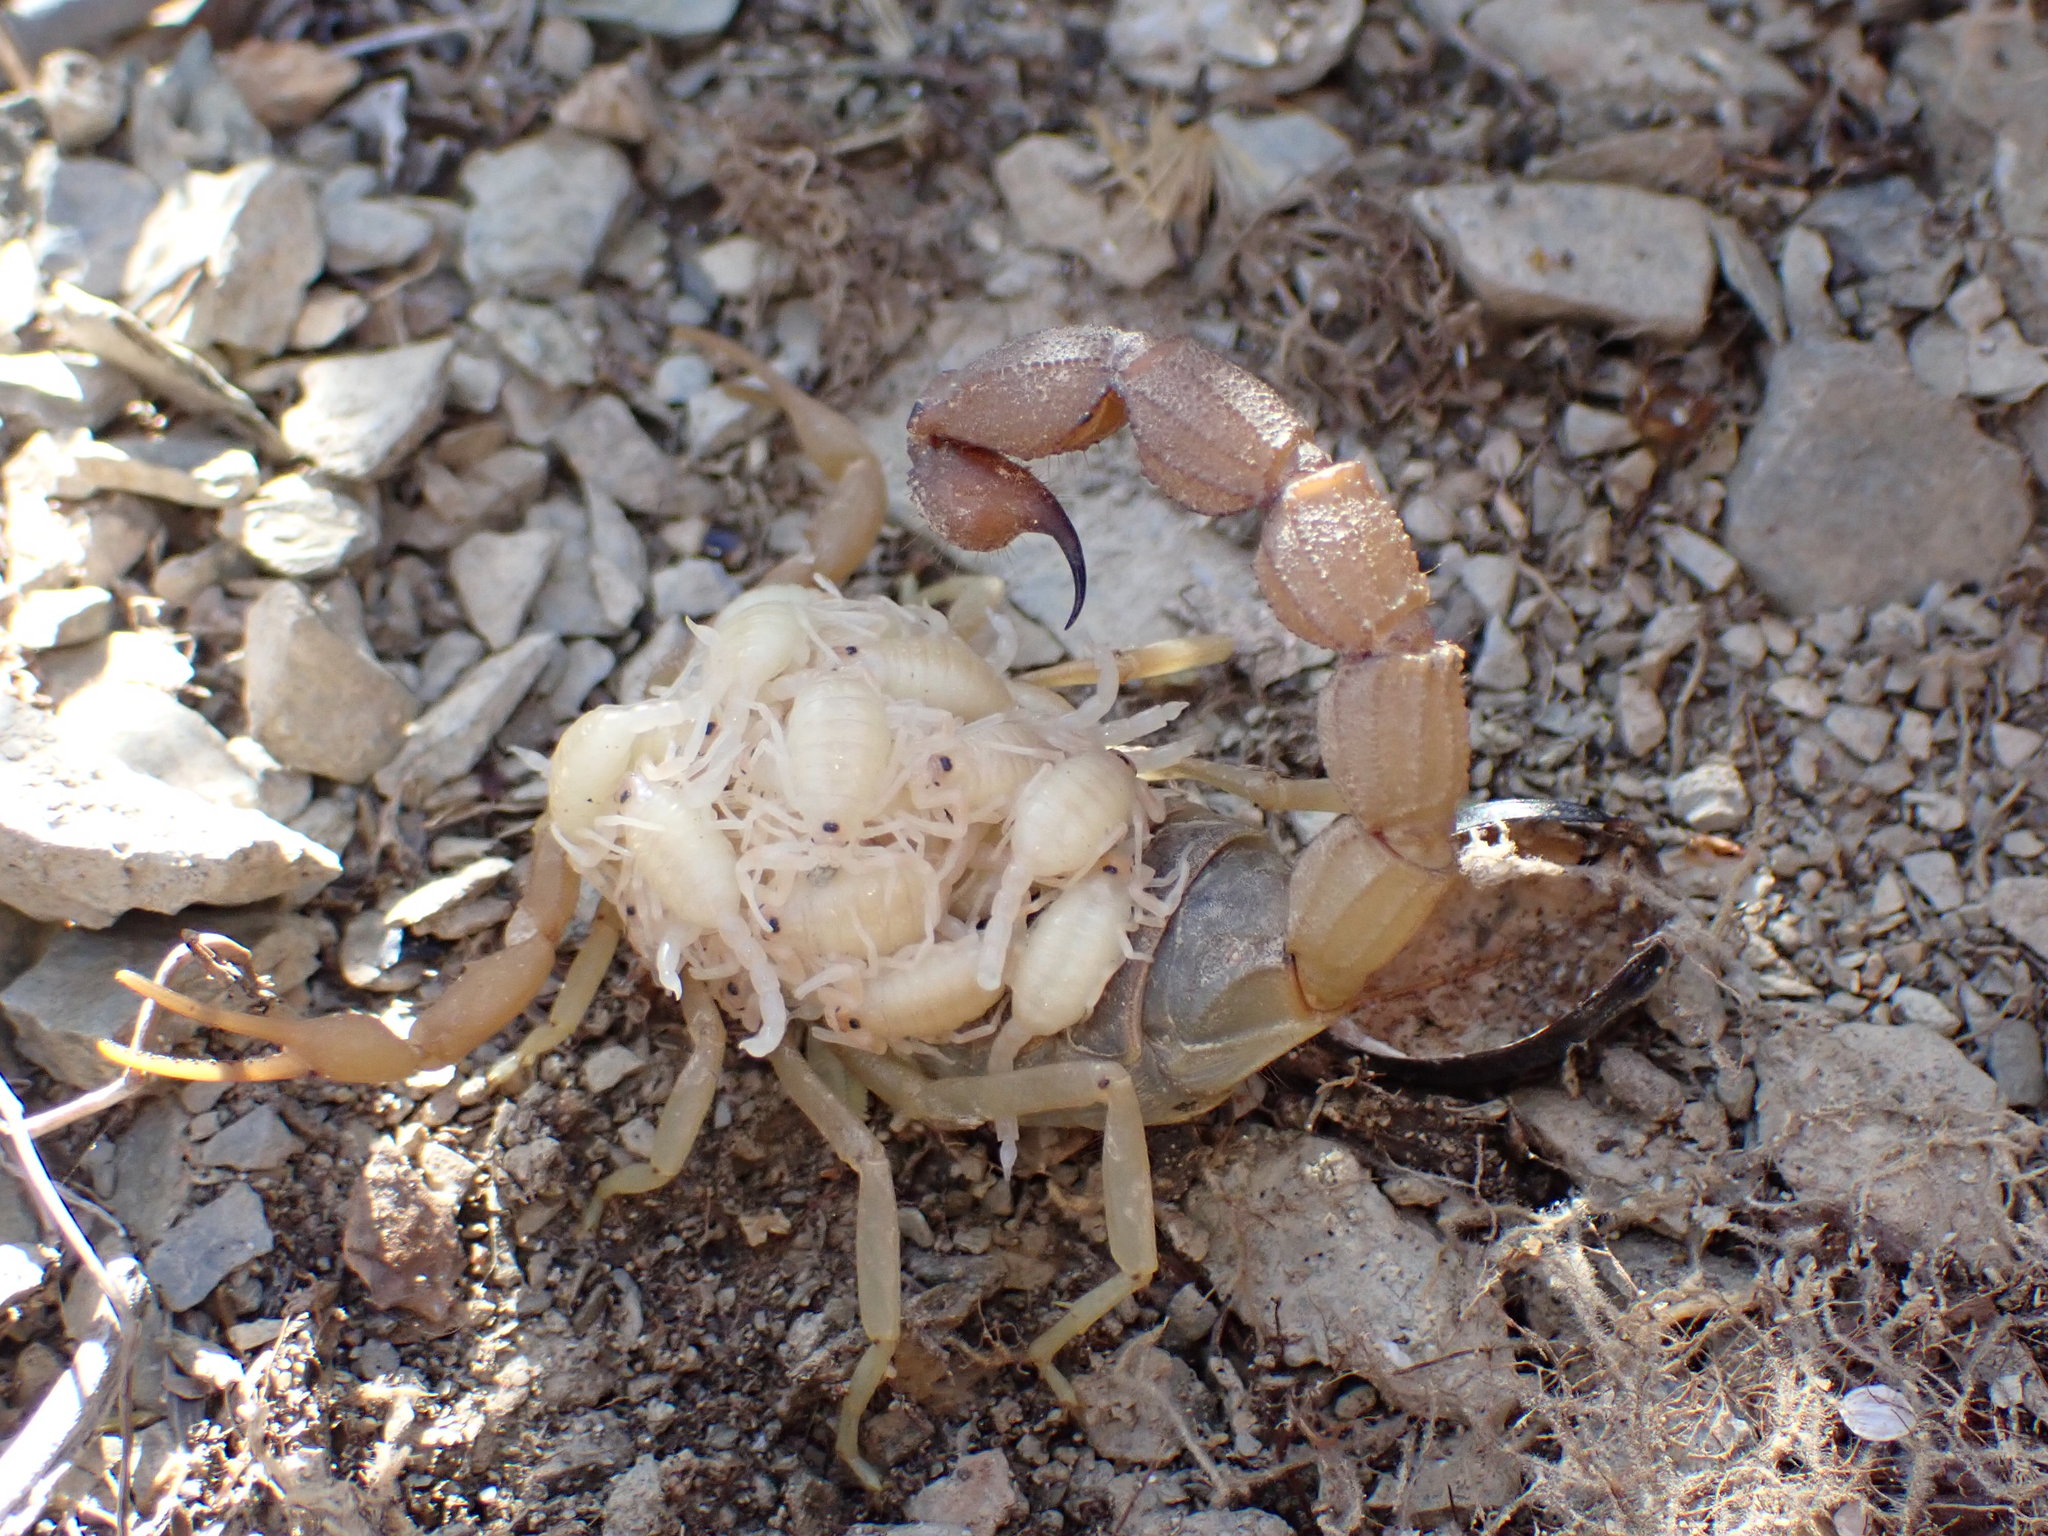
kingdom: Animalia
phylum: Arthropoda
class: Arachnida
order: Scorpiones
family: Buthidae
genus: Parabuthus
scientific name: Parabuthus planicauda
